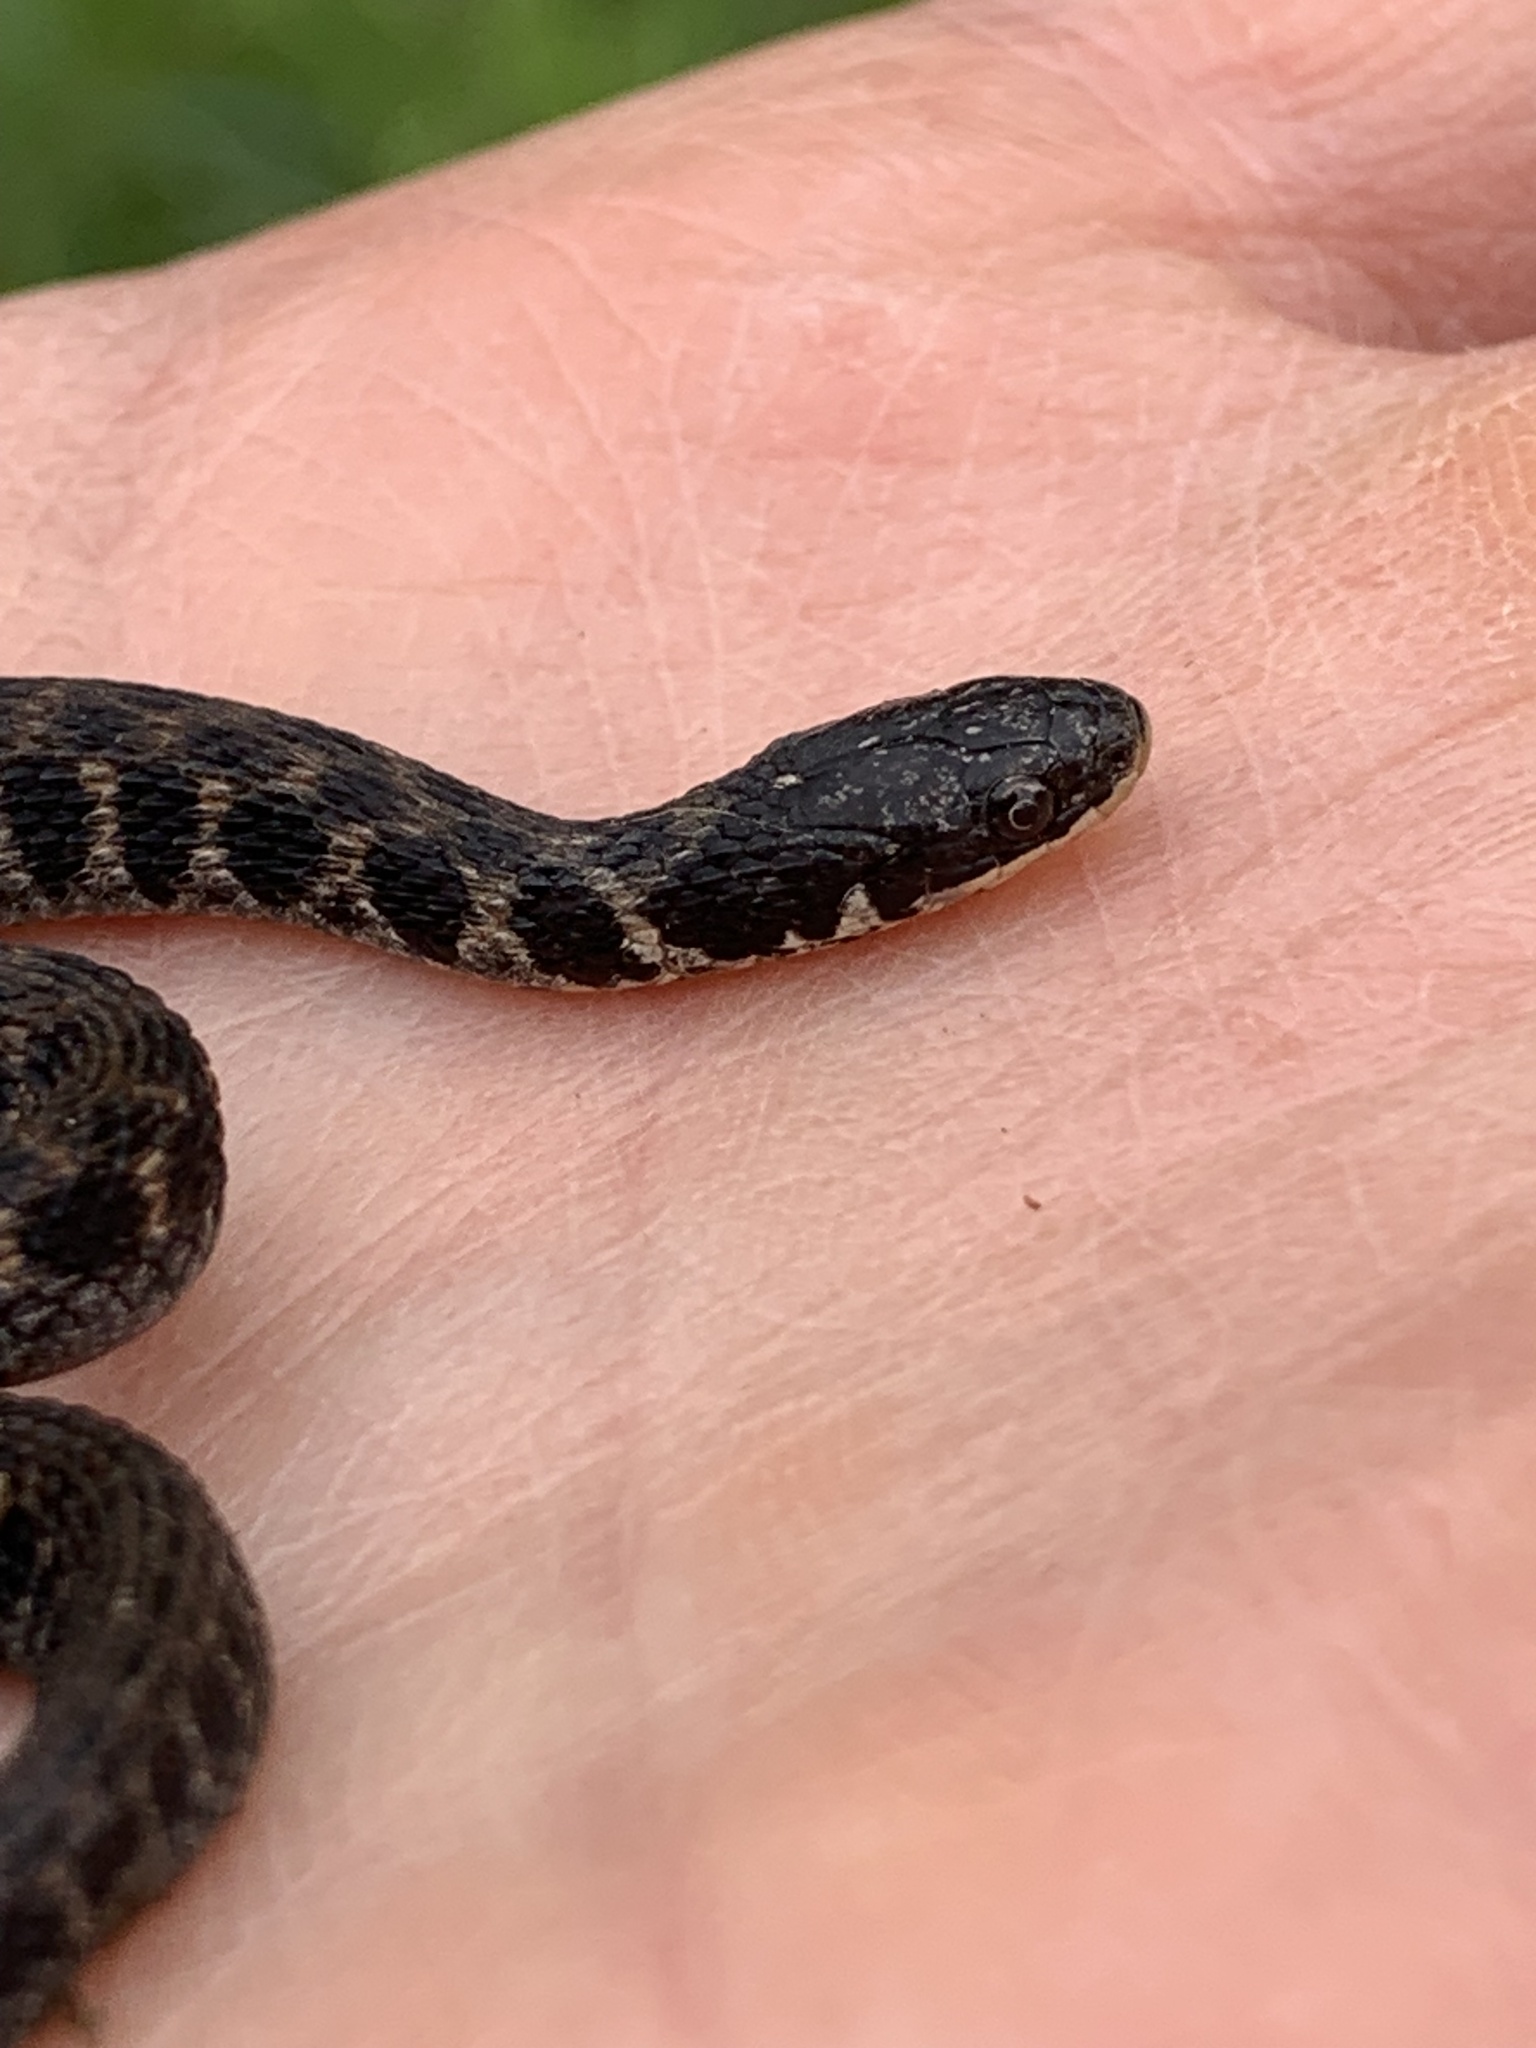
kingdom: Animalia
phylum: Chordata
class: Squamata
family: Colubridae
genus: Clonophis
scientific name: Clonophis kirtlandii
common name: Kirtland's snake
